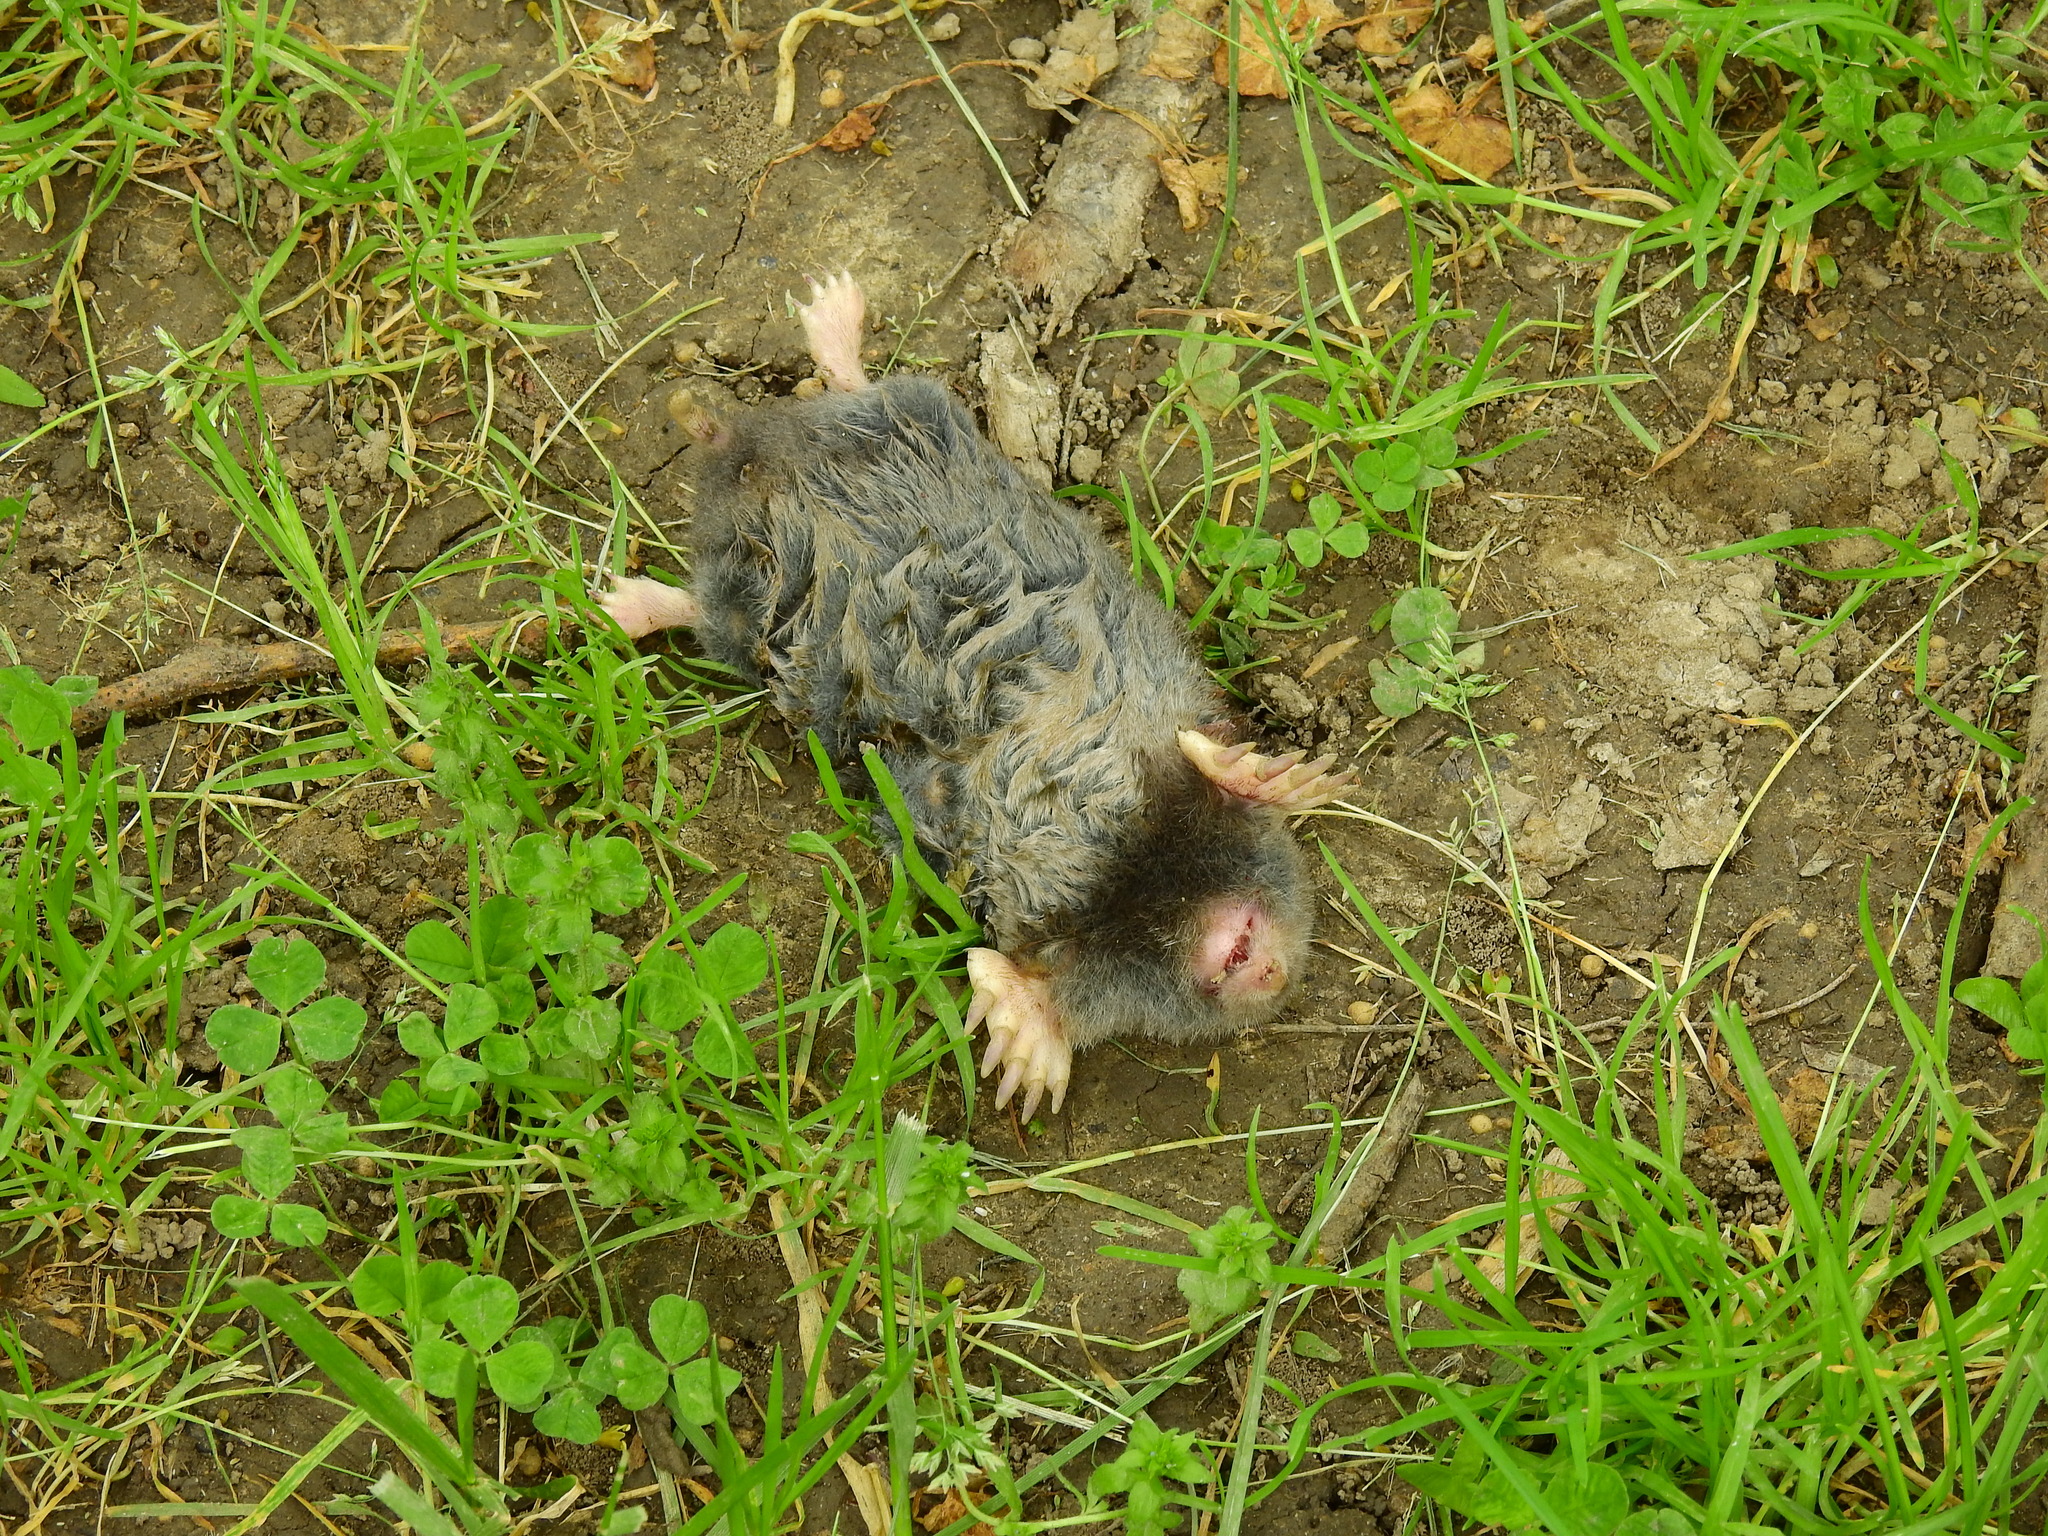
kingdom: Animalia
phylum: Chordata
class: Mammalia
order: Soricomorpha
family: Talpidae
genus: Scalopus
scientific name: Scalopus aquaticus
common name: Eastern mole
